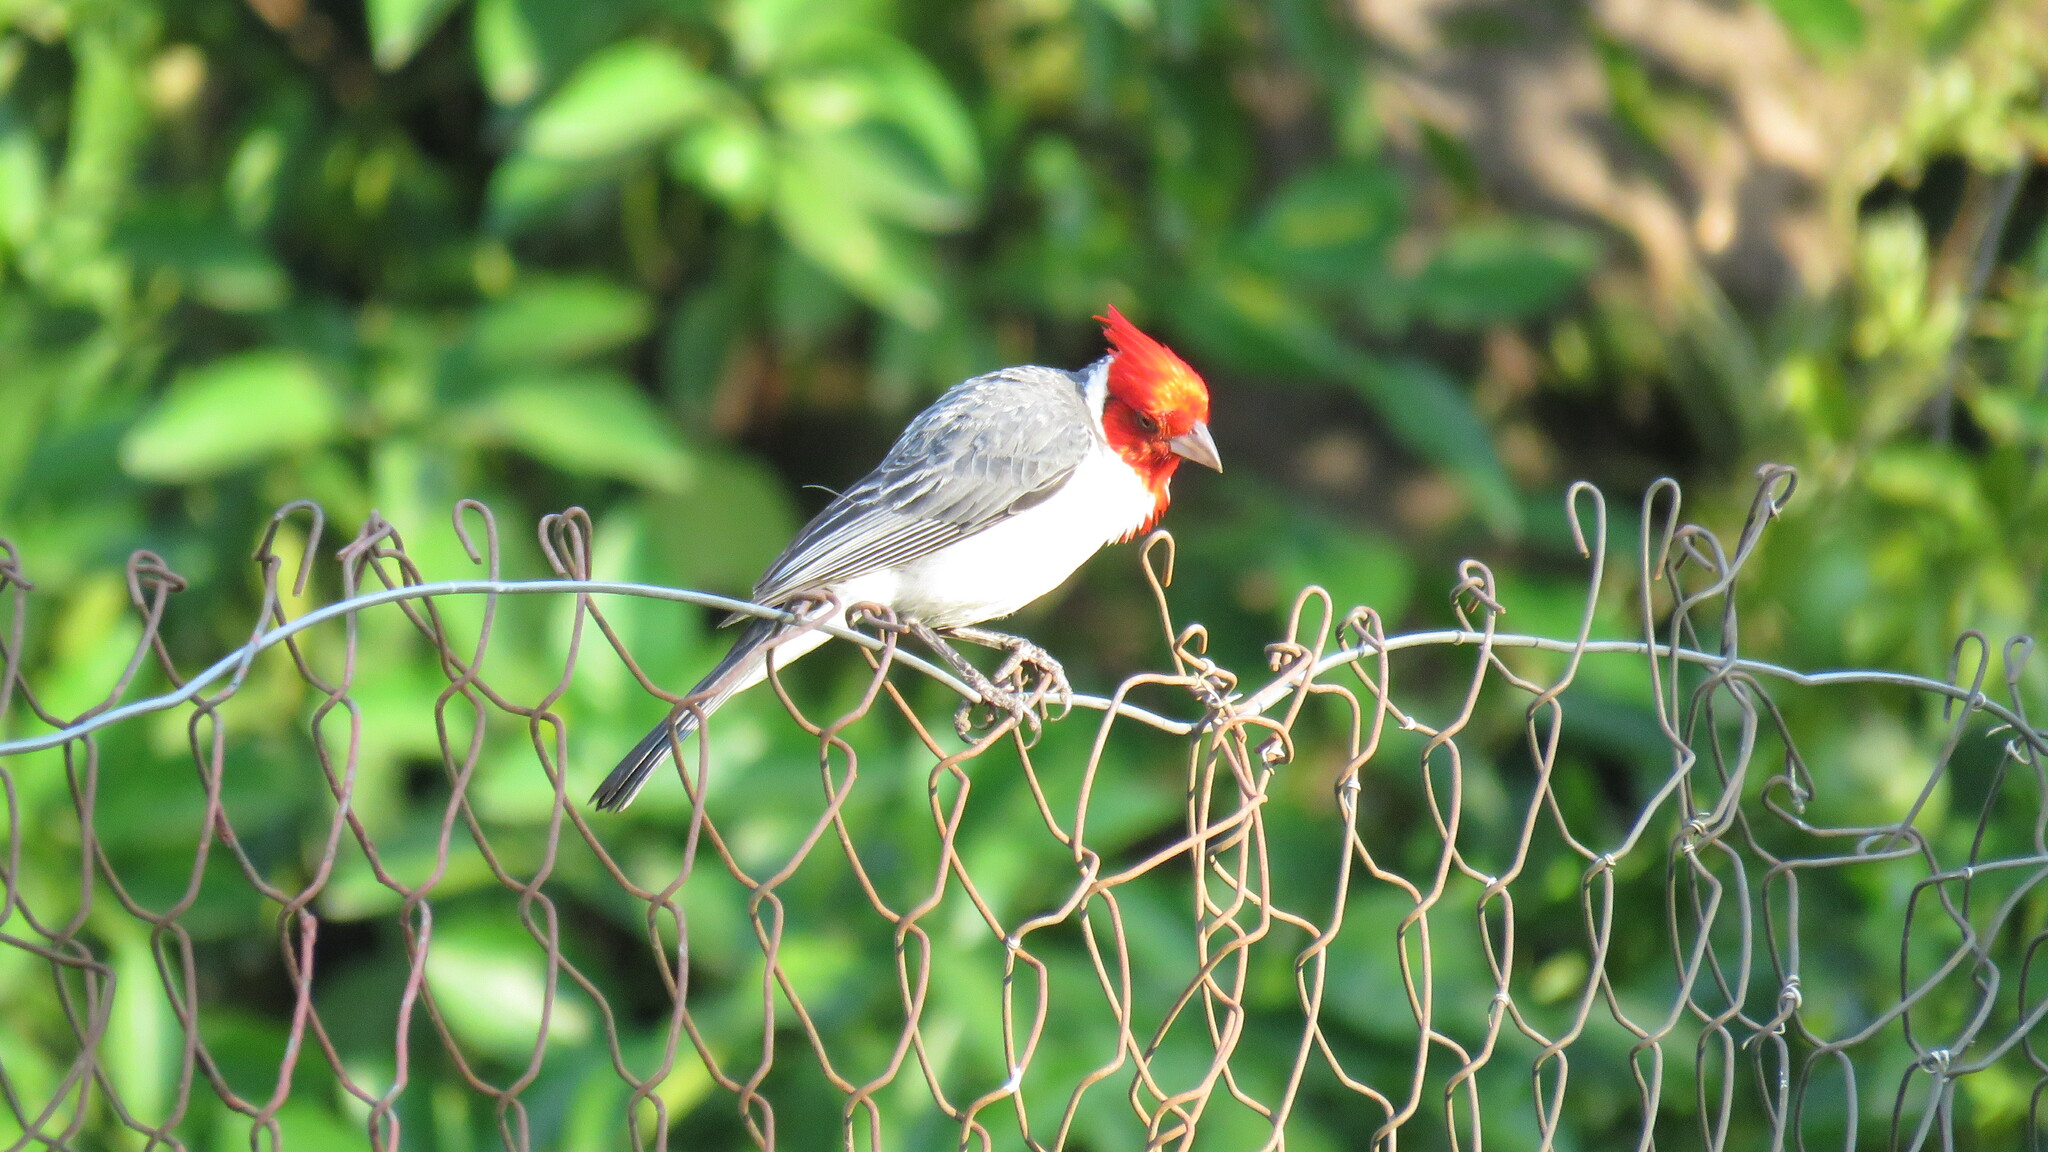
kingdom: Animalia
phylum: Chordata
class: Aves
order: Passeriformes
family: Thraupidae
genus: Paroaria
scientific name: Paroaria coronata
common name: Red-crested cardinal
